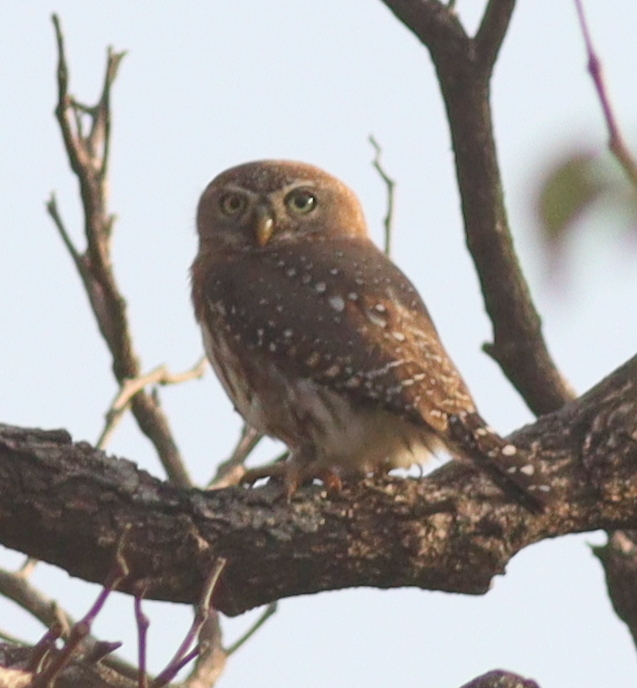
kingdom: Animalia
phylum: Chordata
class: Aves
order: Strigiformes
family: Strigidae
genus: Glaucidium
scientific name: Glaucidium perlatum
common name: Pearl-spotted owlet
